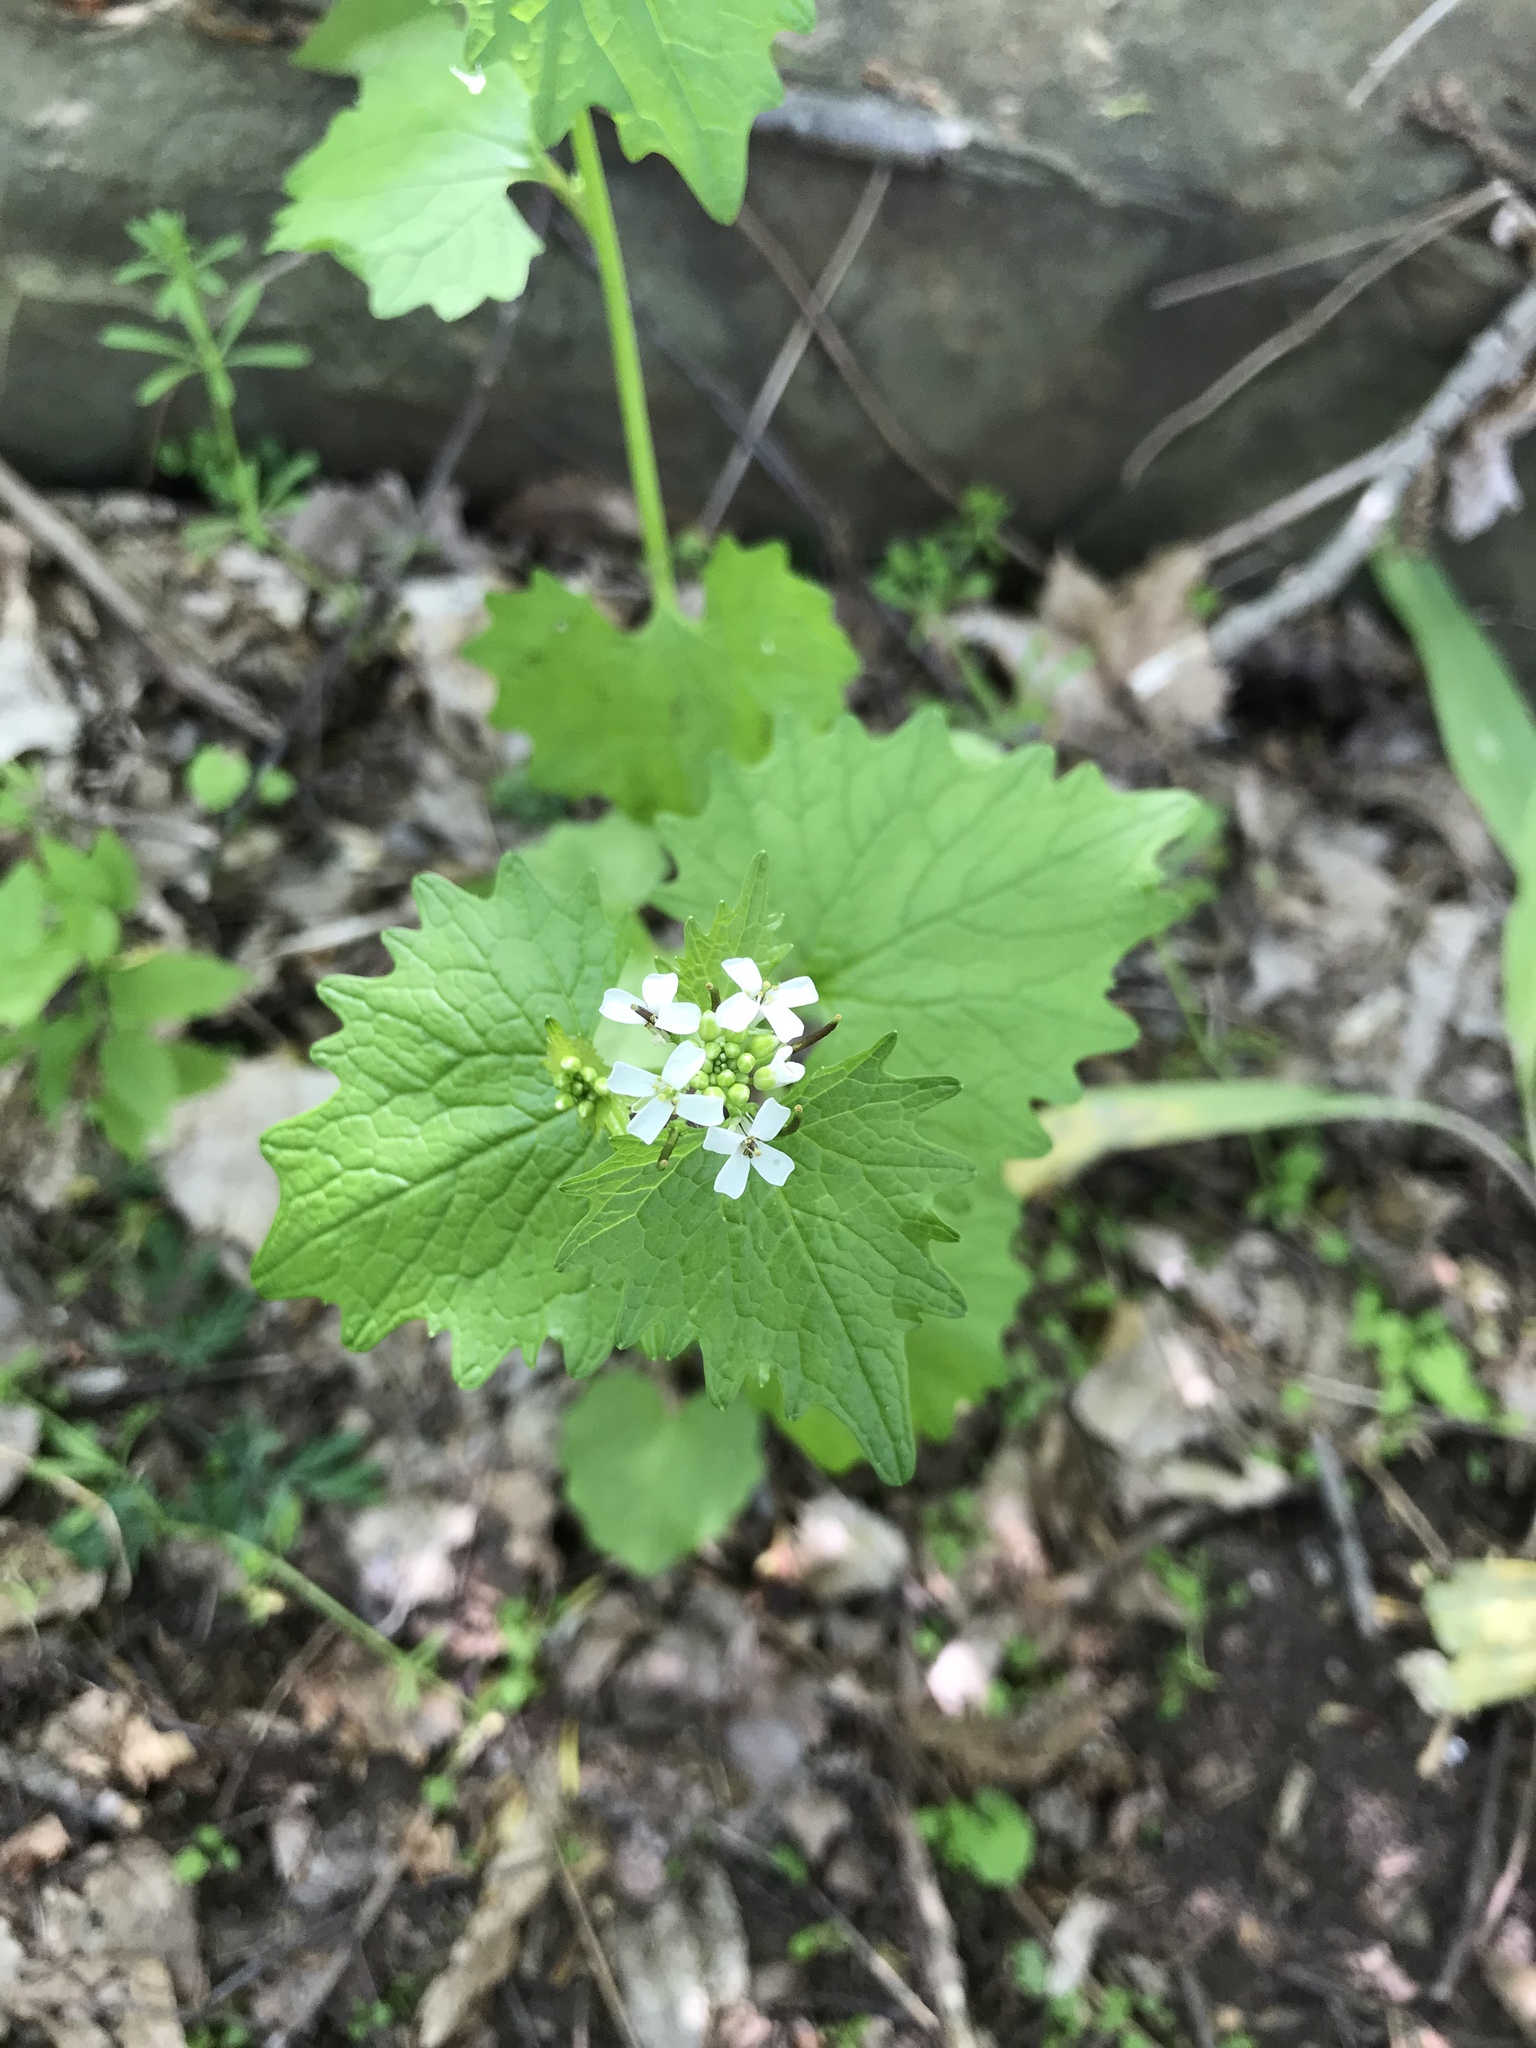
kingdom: Plantae
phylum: Tracheophyta
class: Magnoliopsida
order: Brassicales
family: Brassicaceae
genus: Alliaria
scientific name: Alliaria petiolata
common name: Garlic mustard
